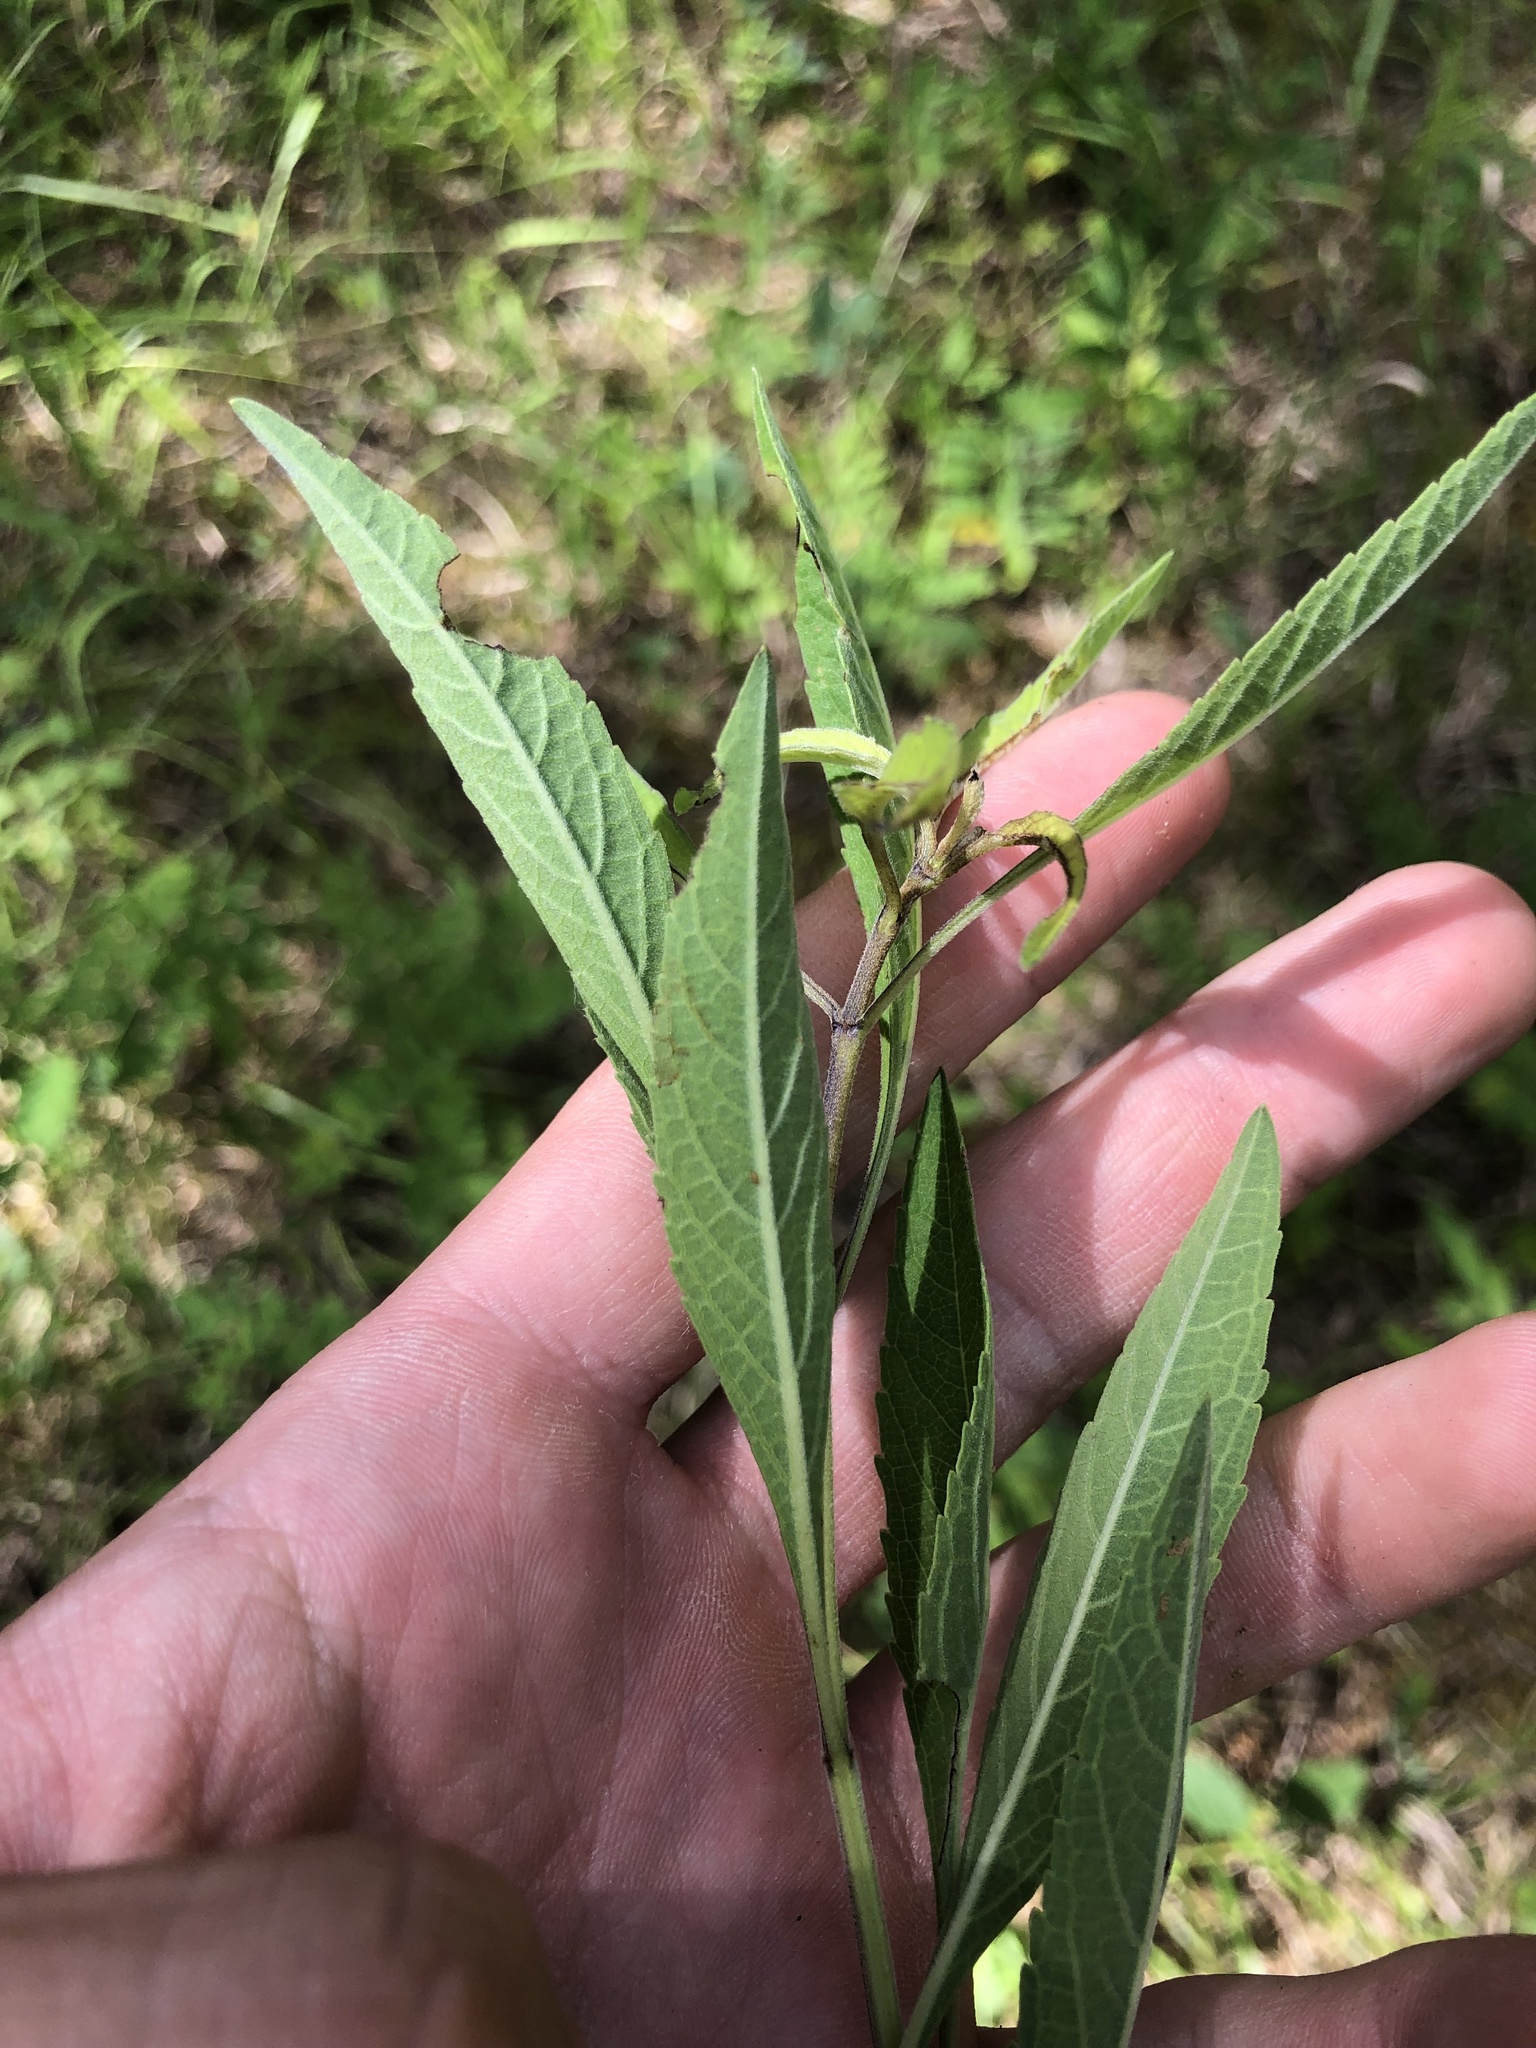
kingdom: Plantae
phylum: Tracheophyta
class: Magnoliopsida
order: Lamiales
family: Lamiaceae
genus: Salvia
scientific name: Salvia azurea
